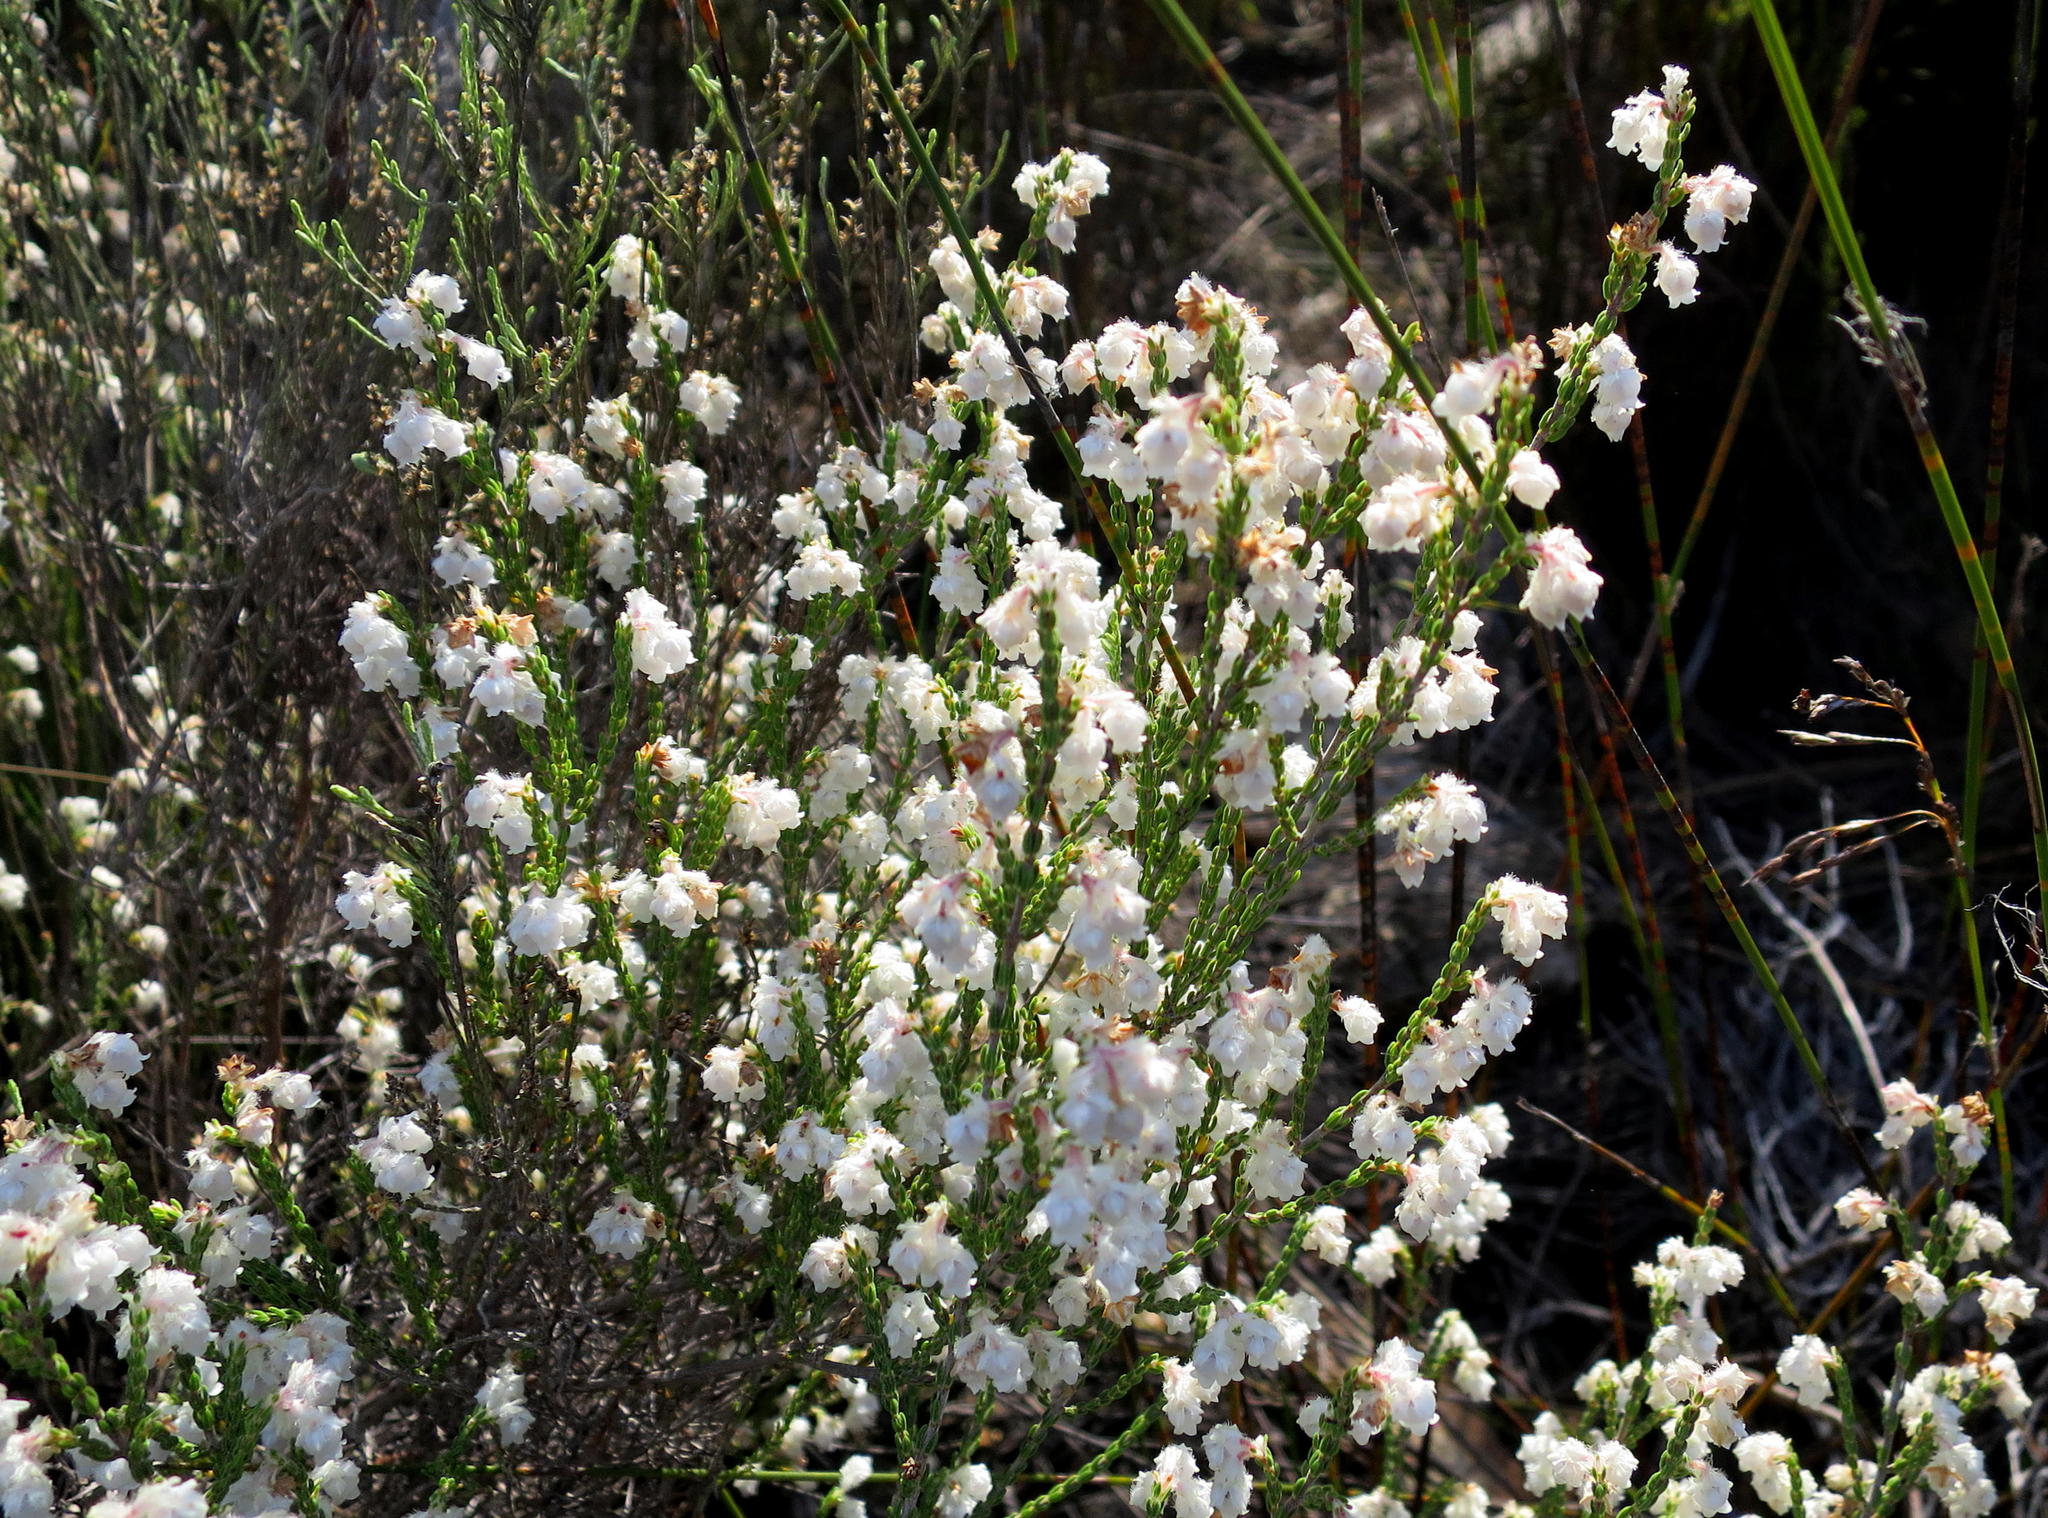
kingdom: Plantae
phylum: Tracheophyta
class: Magnoliopsida
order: Ericales
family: Ericaceae
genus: Erica
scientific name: Erica fimbriata
